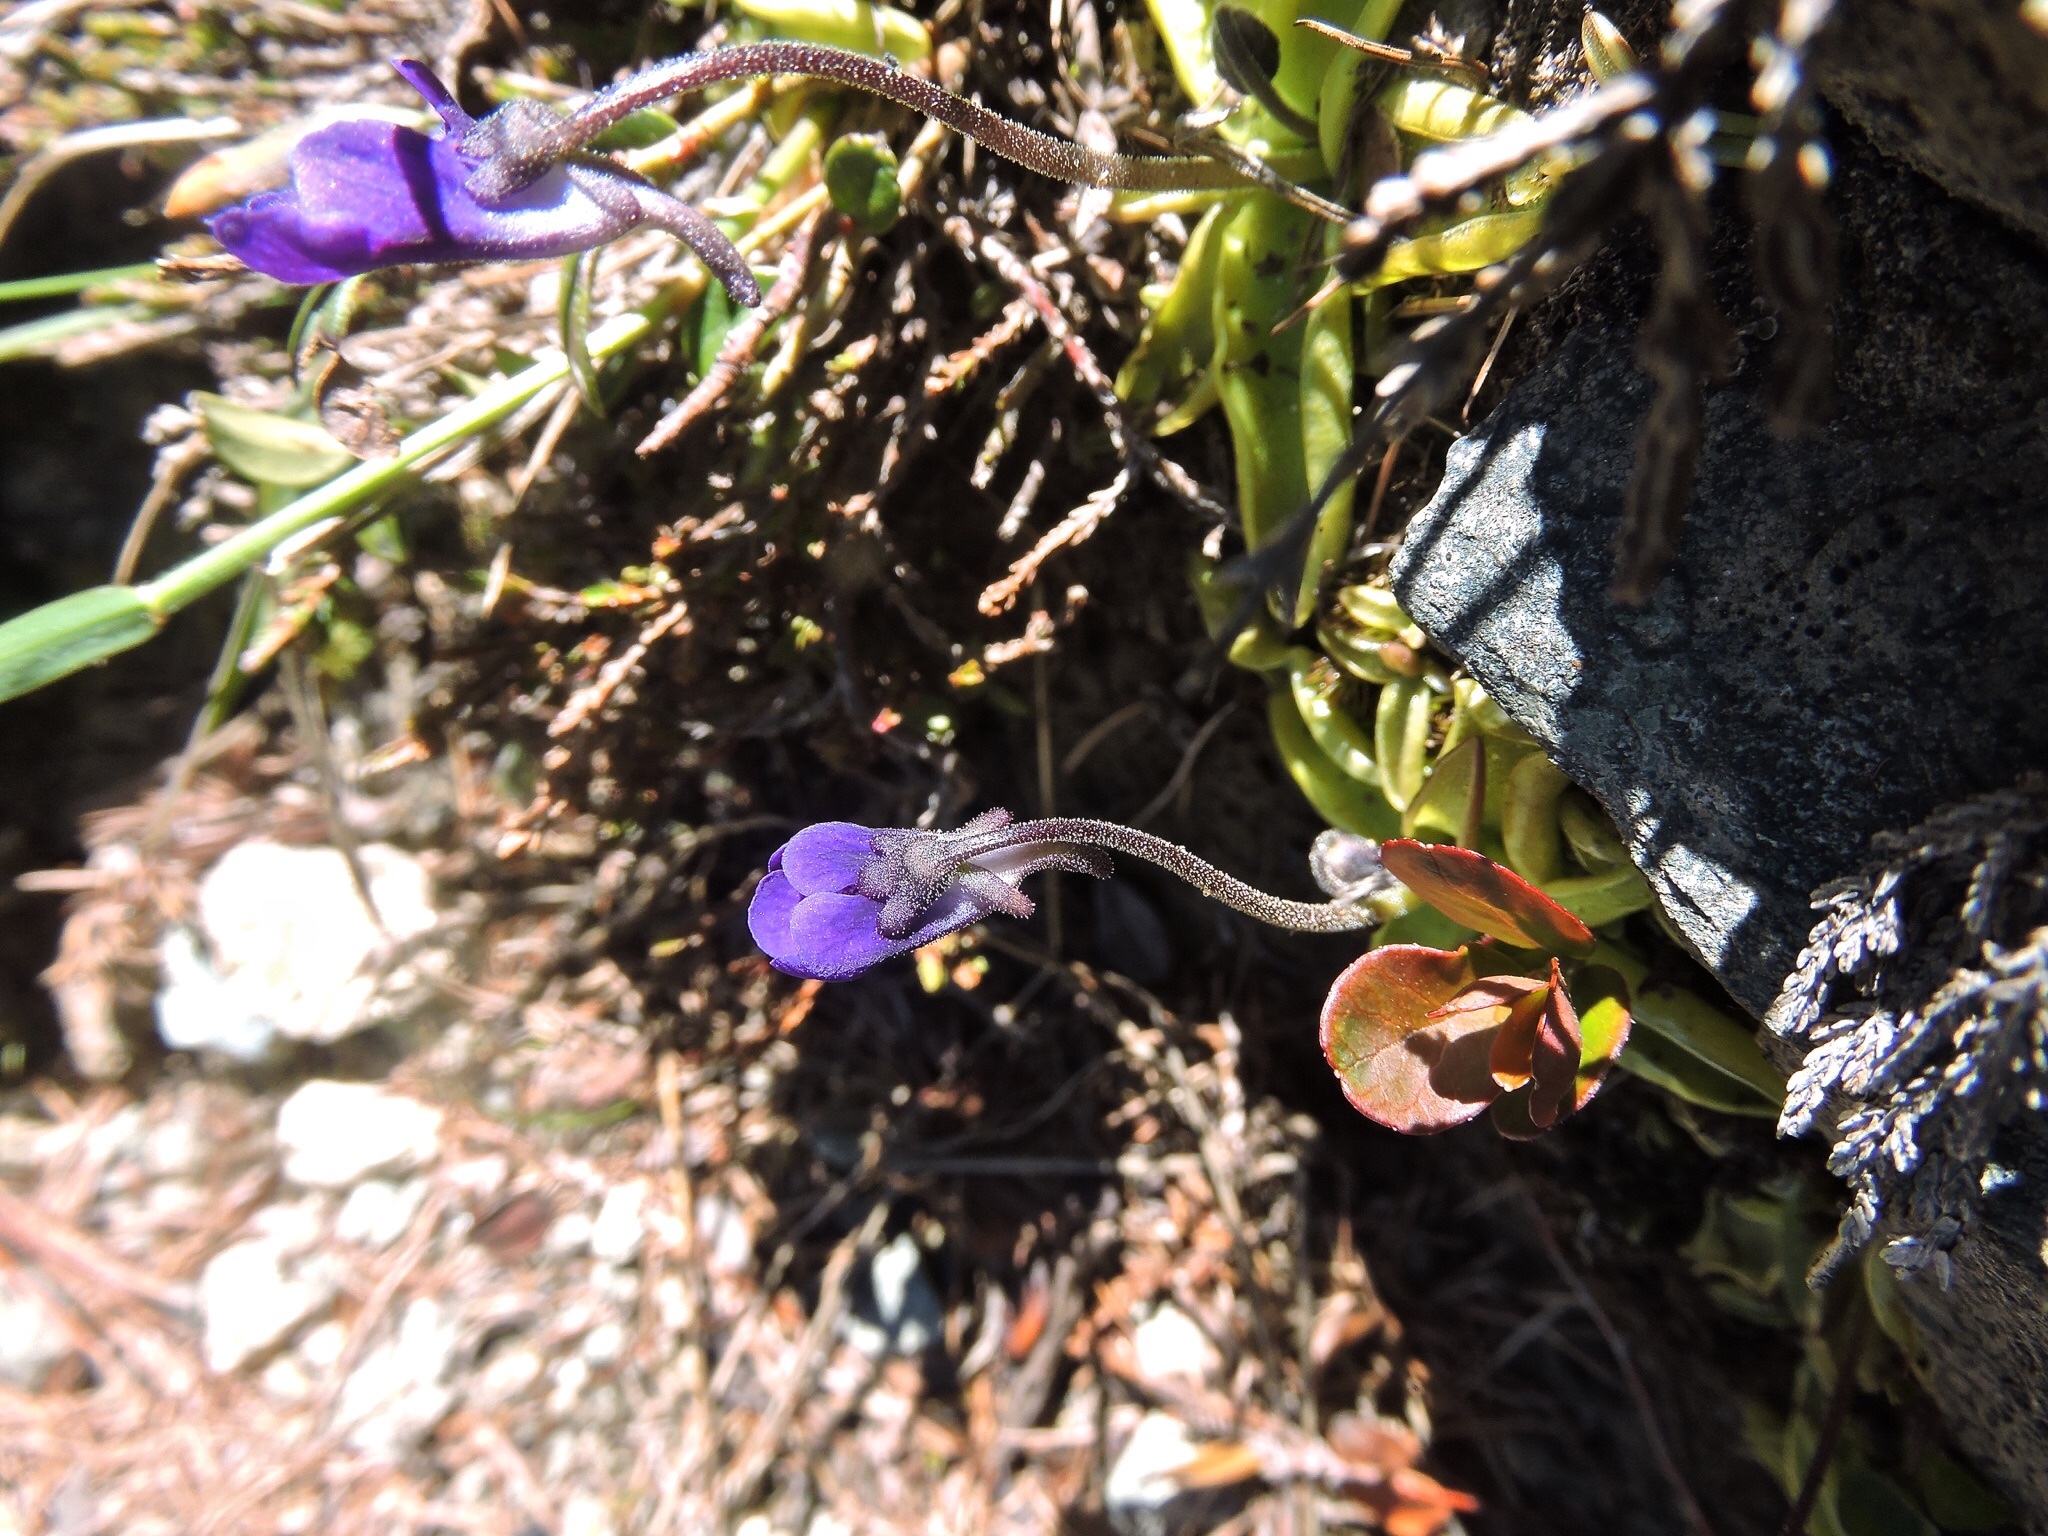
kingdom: Plantae
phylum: Tracheophyta
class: Magnoliopsida
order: Lamiales
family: Lentibulariaceae
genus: Pinguicula
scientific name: Pinguicula leptoceras
